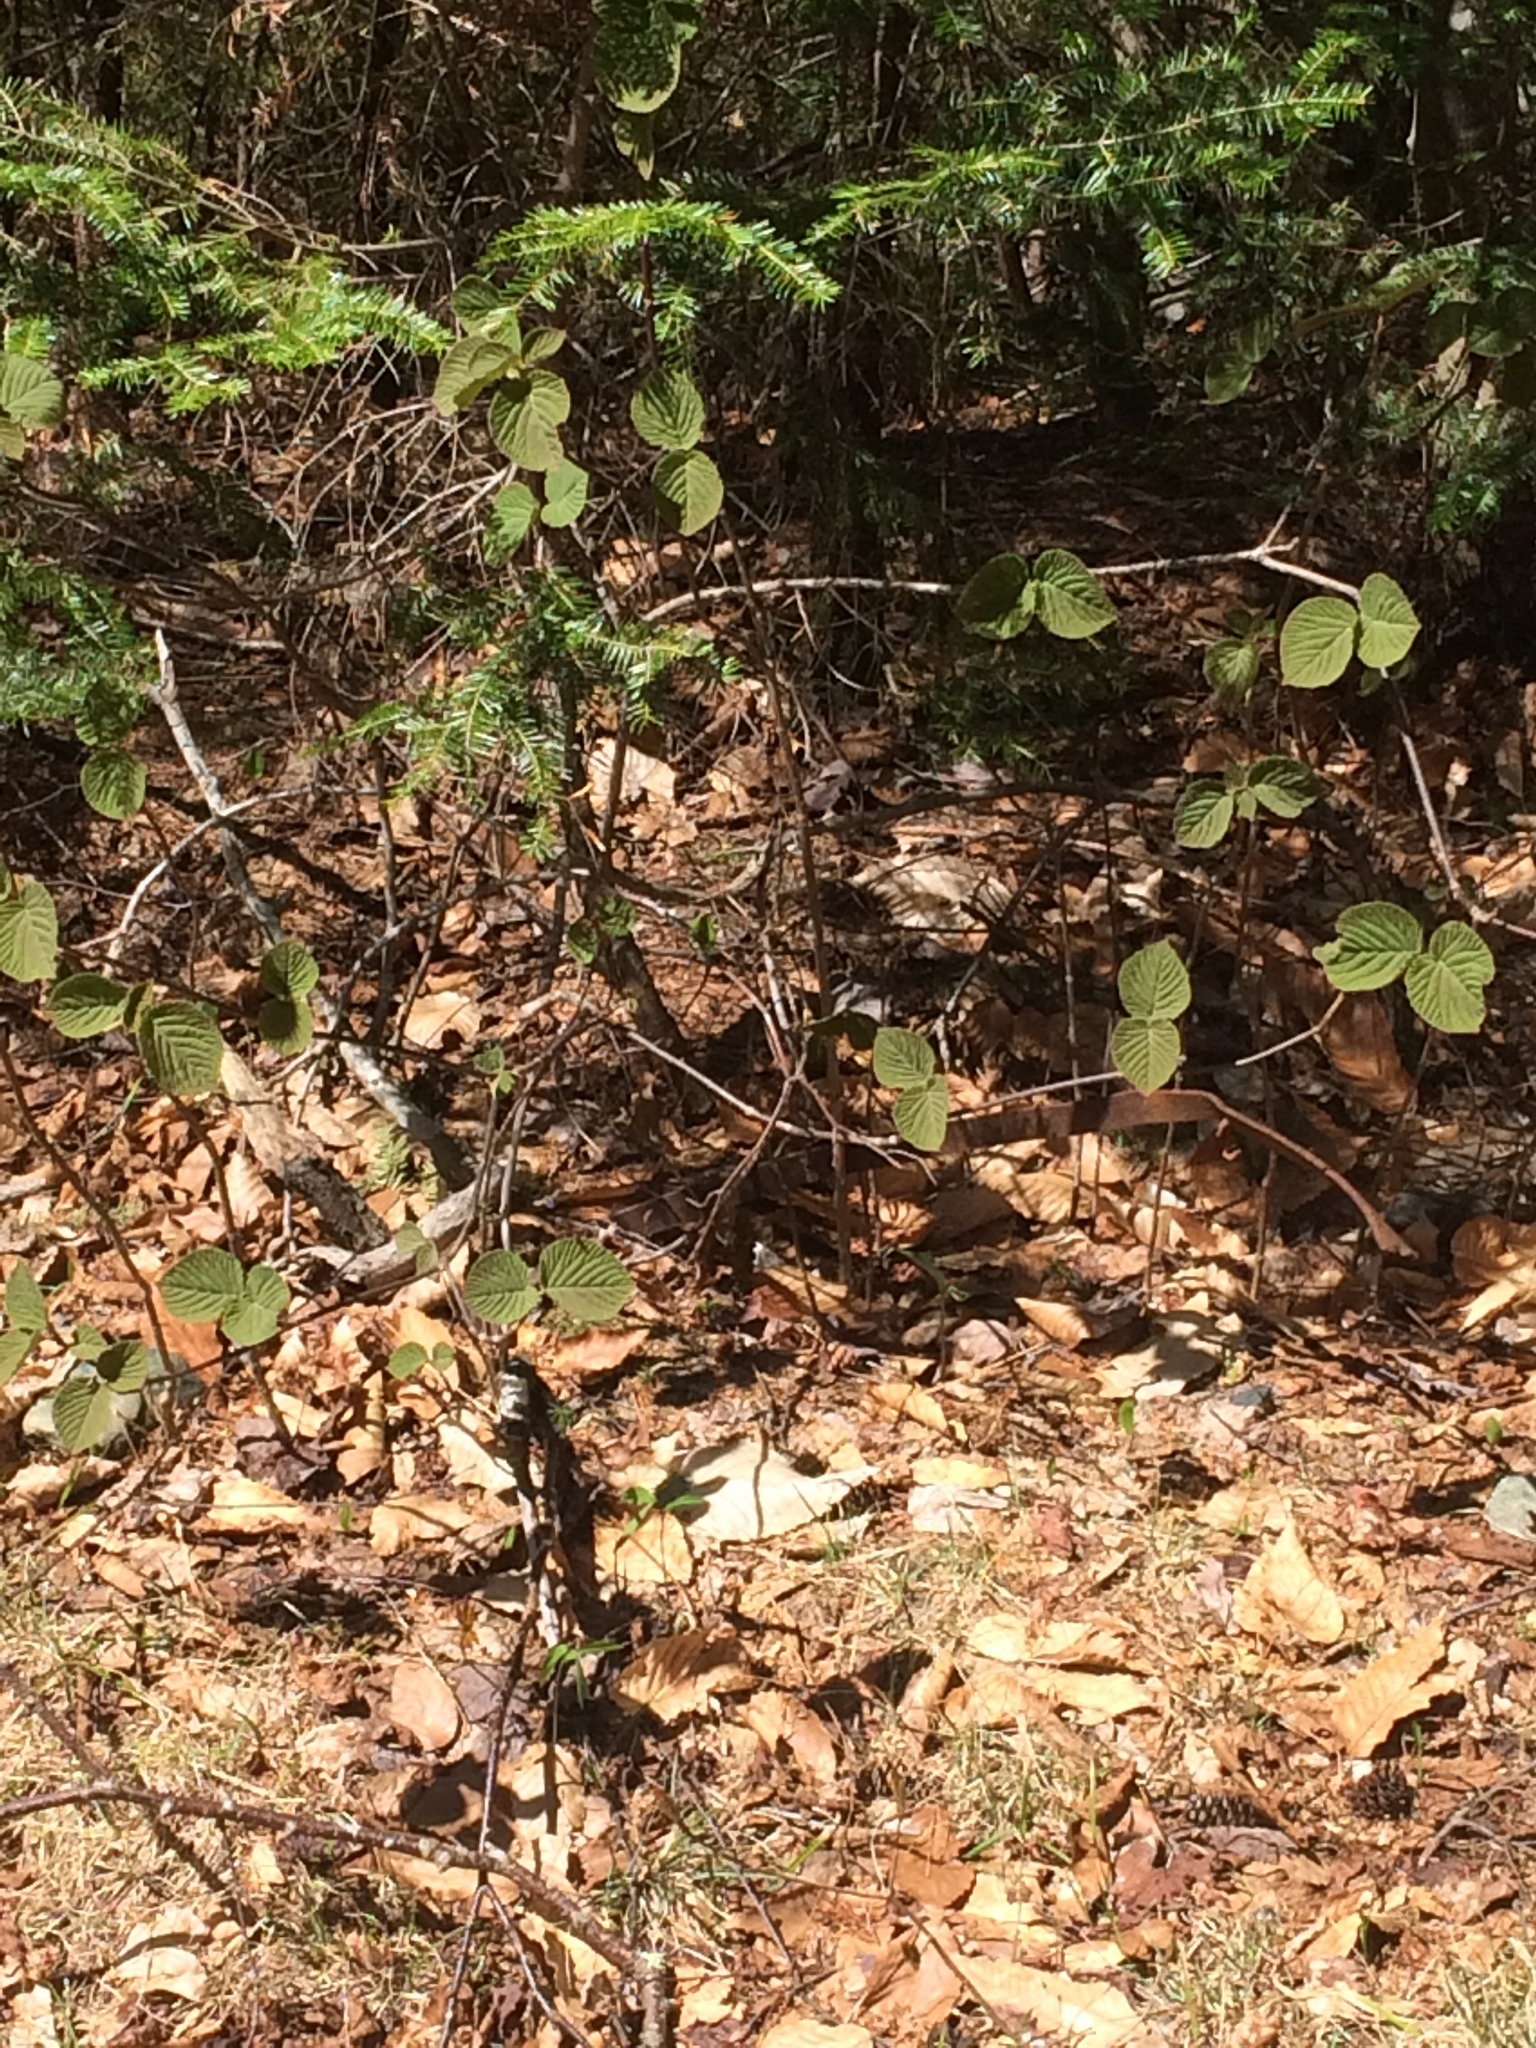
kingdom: Plantae
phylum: Tracheophyta
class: Magnoliopsida
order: Dipsacales
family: Viburnaceae
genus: Viburnum
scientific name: Viburnum lantanoides
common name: Hobblebush
